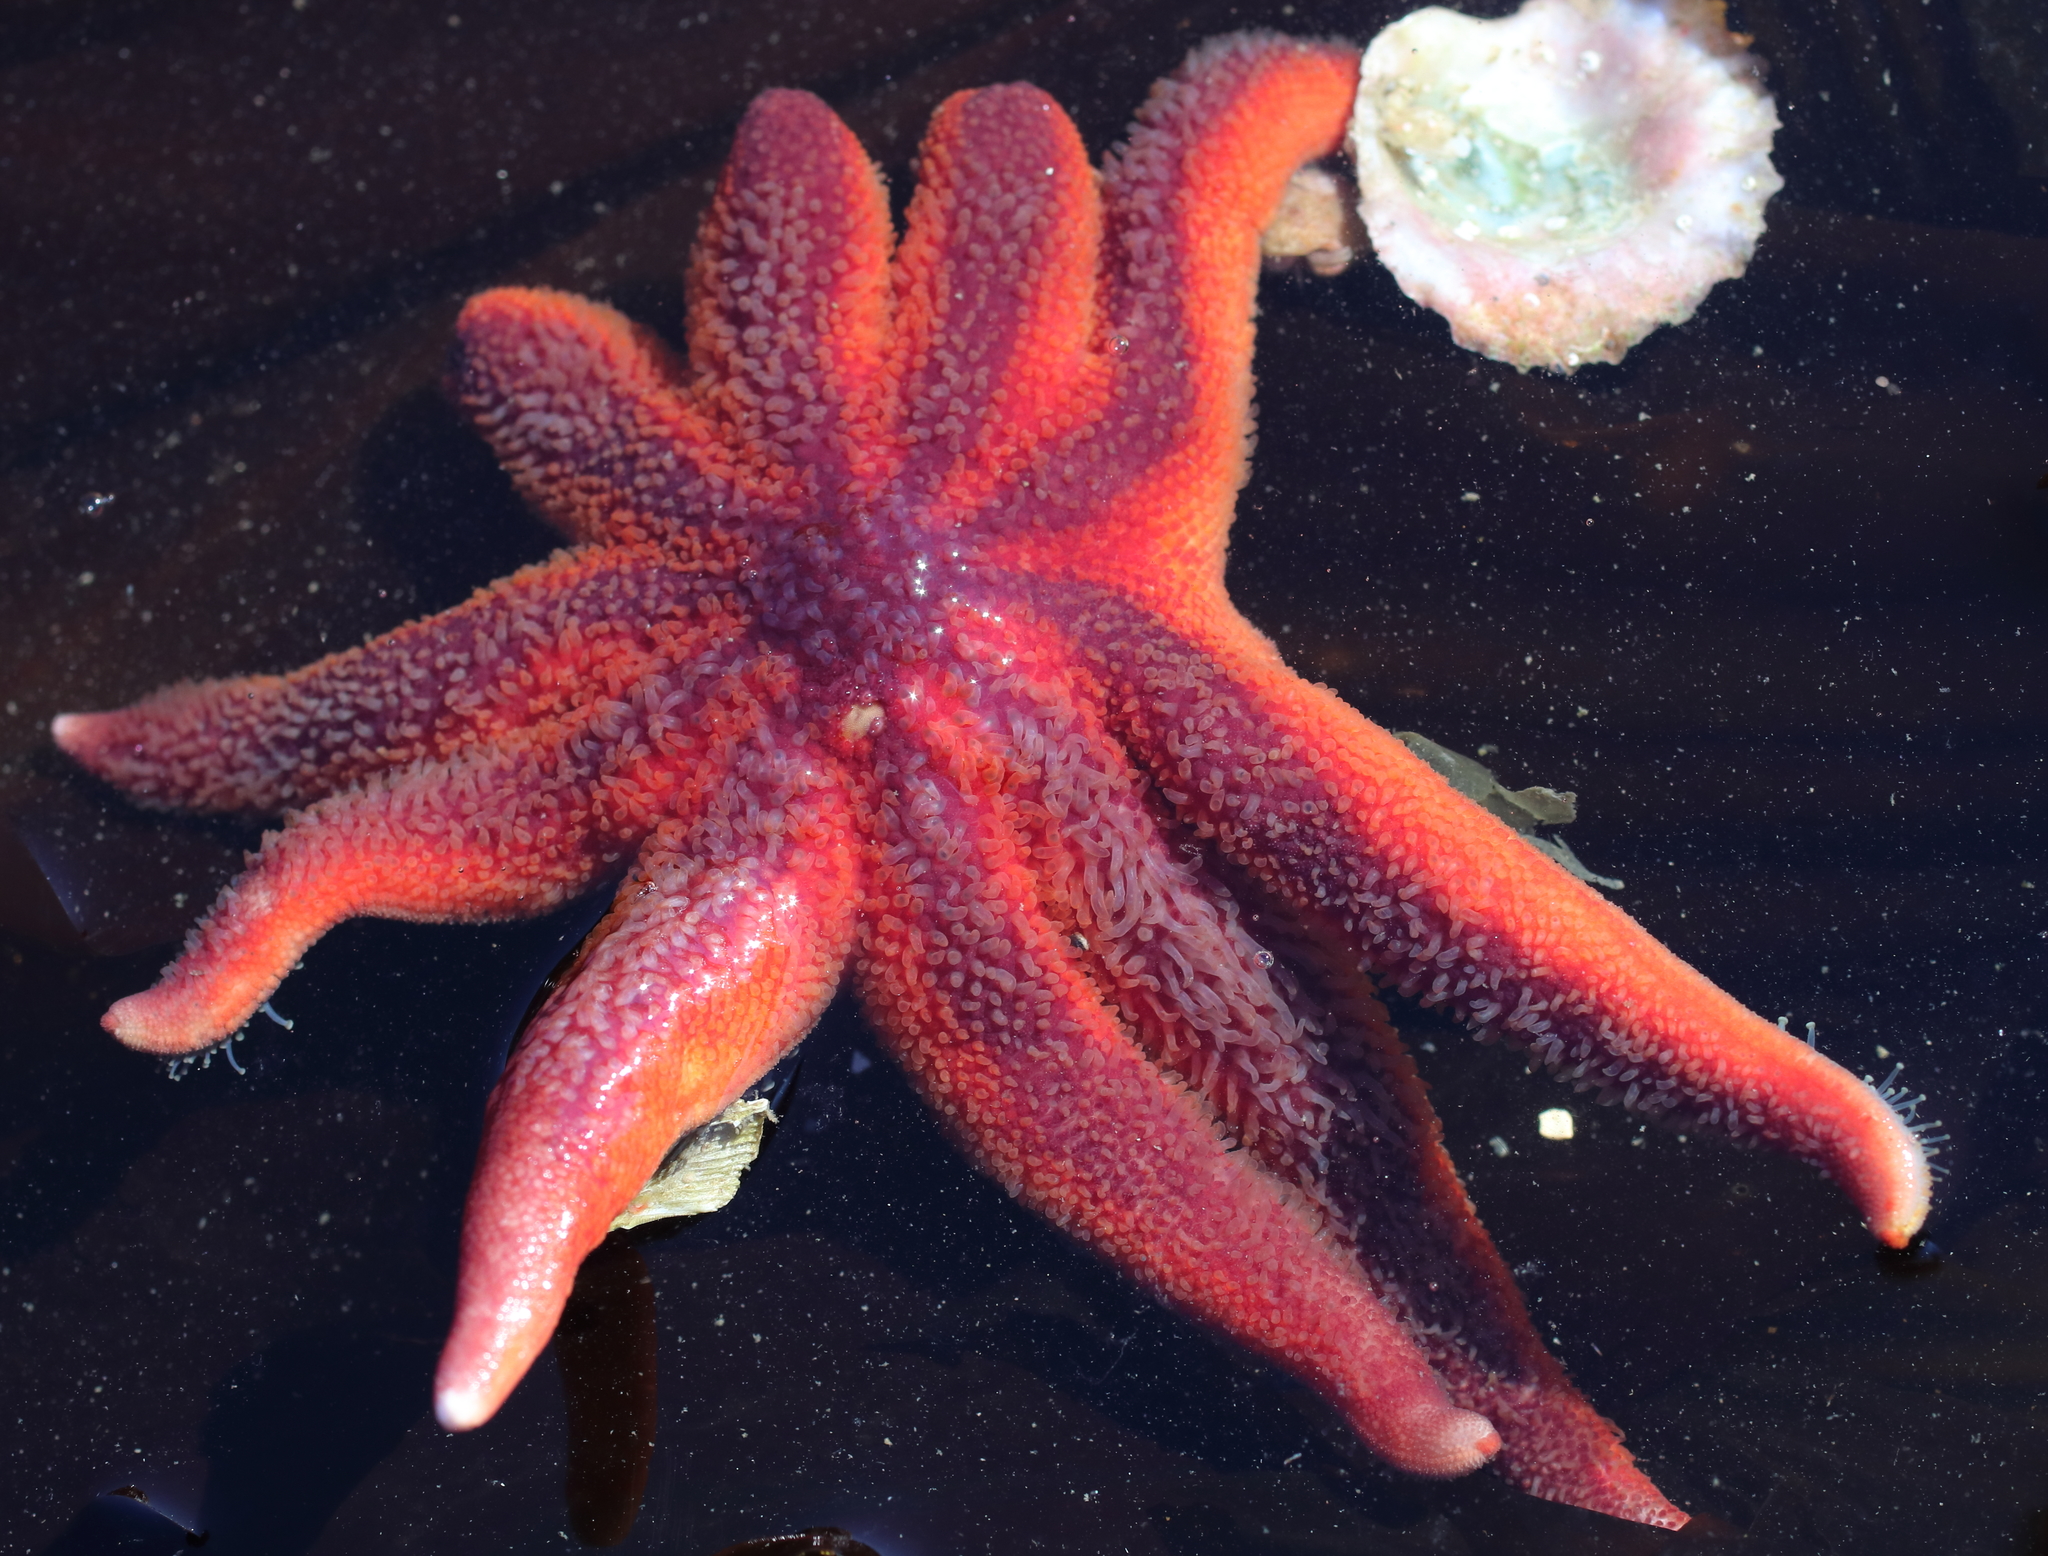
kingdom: Animalia
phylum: Echinodermata
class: Asteroidea
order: Valvatida
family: Solasteridae
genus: Solaster
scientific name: Solaster stimpsoni
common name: Orange sun star
